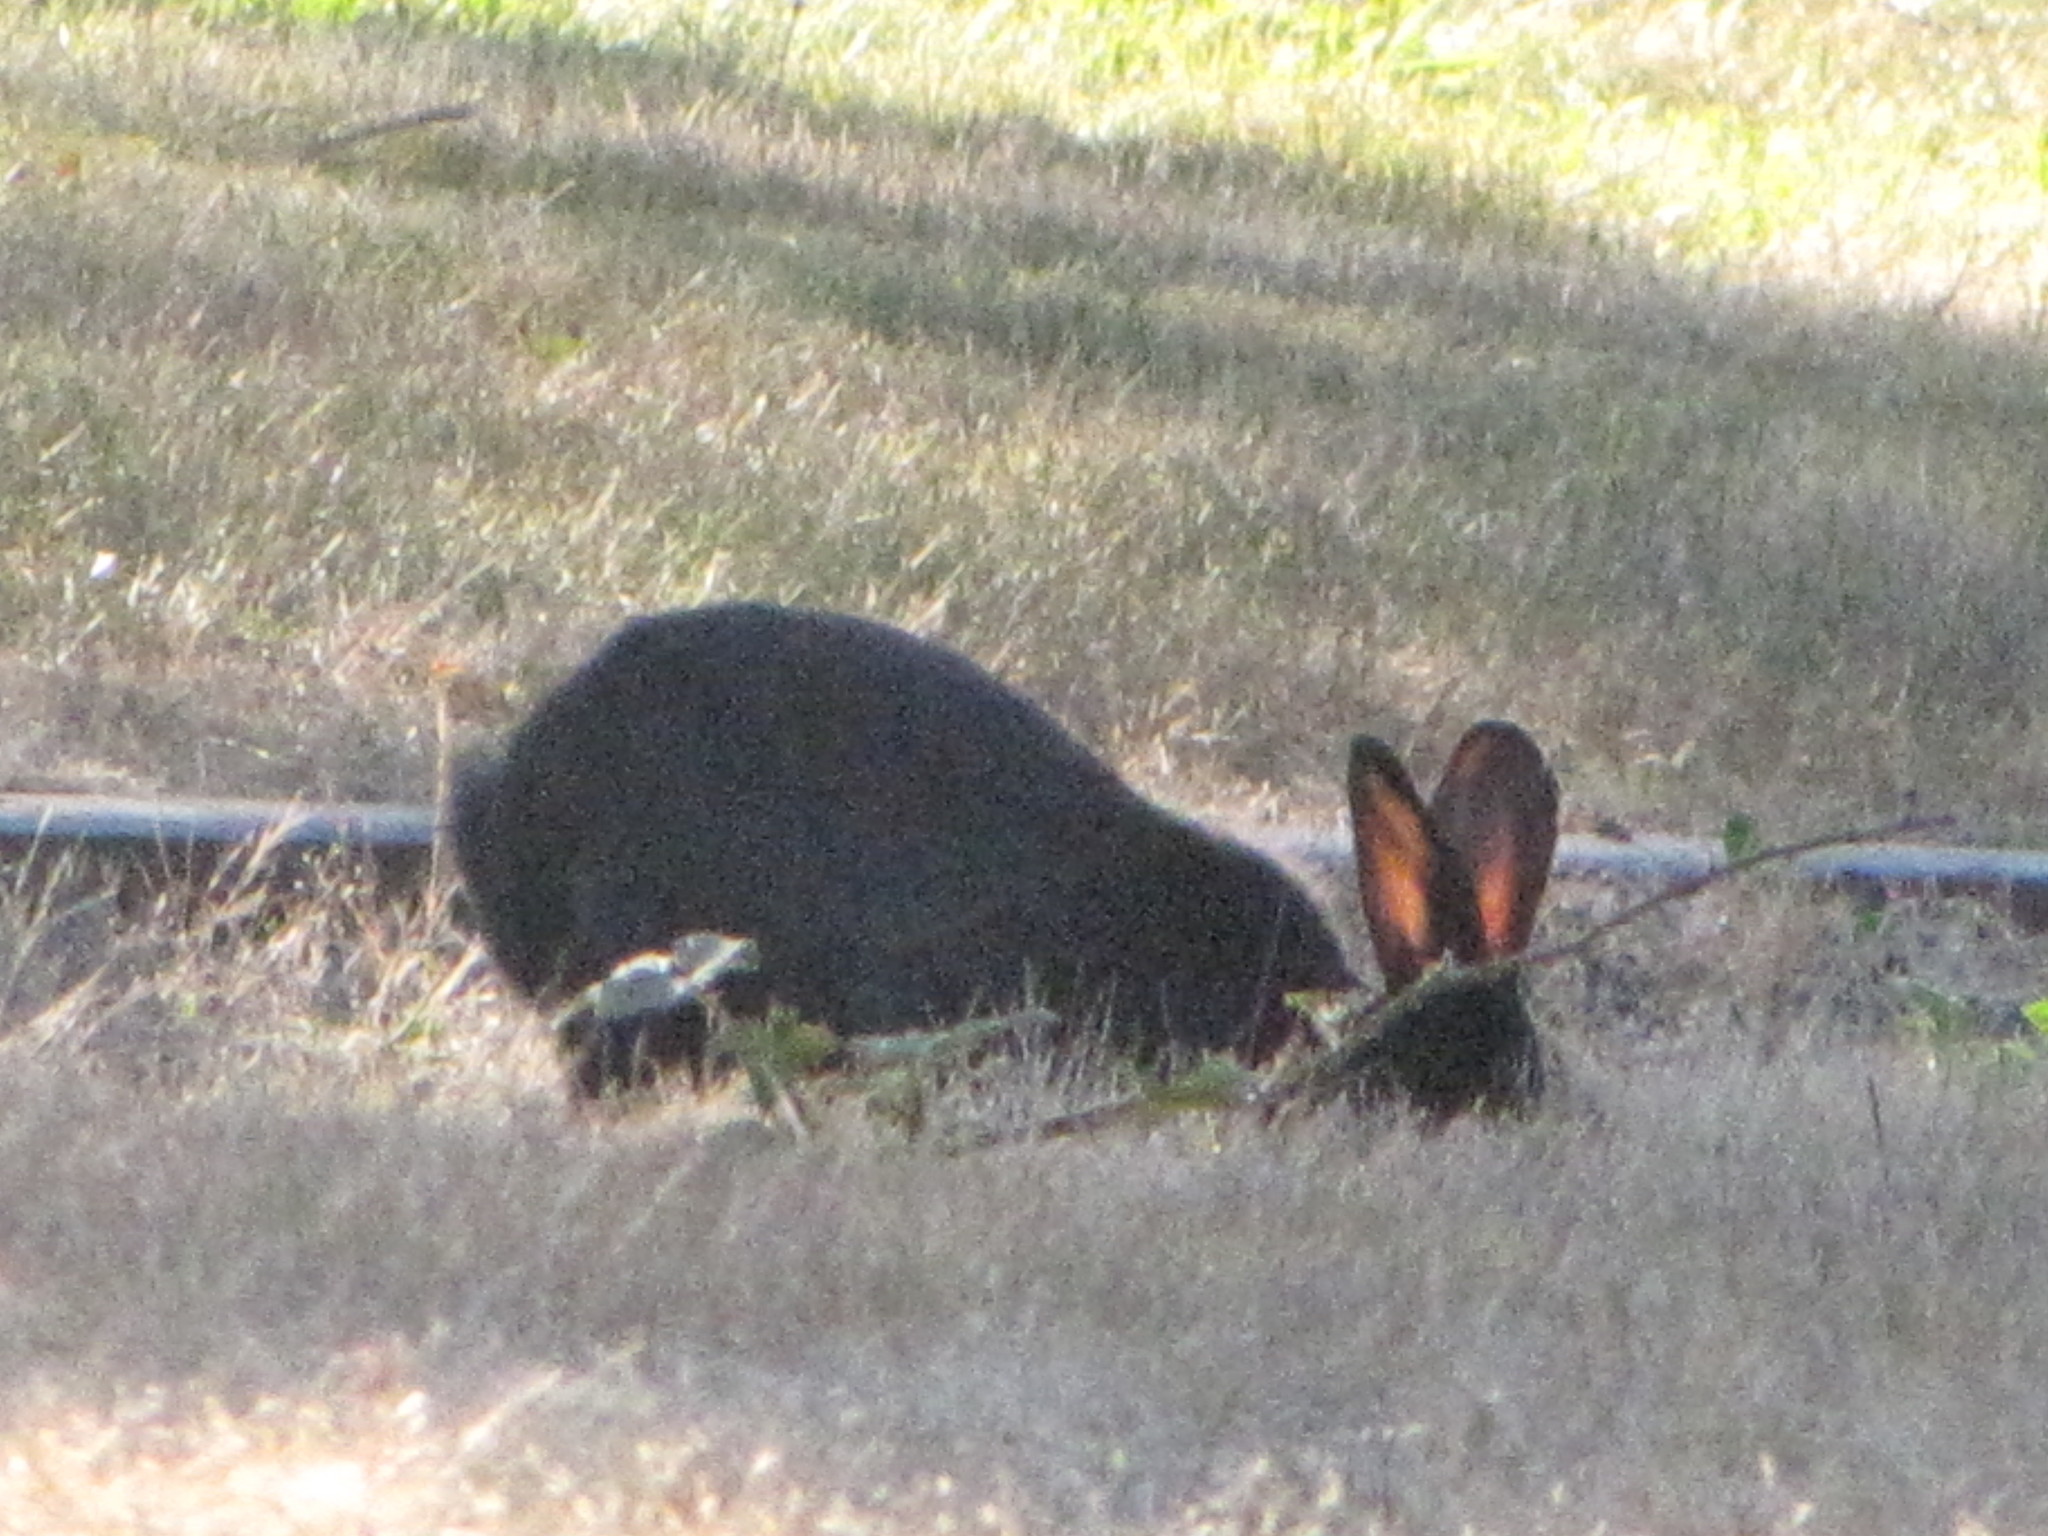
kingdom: Animalia
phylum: Chordata
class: Mammalia
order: Lagomorpha
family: Leporidae
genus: Oryctolagus
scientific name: Oryctolagus cuniculus
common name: European rabbit
